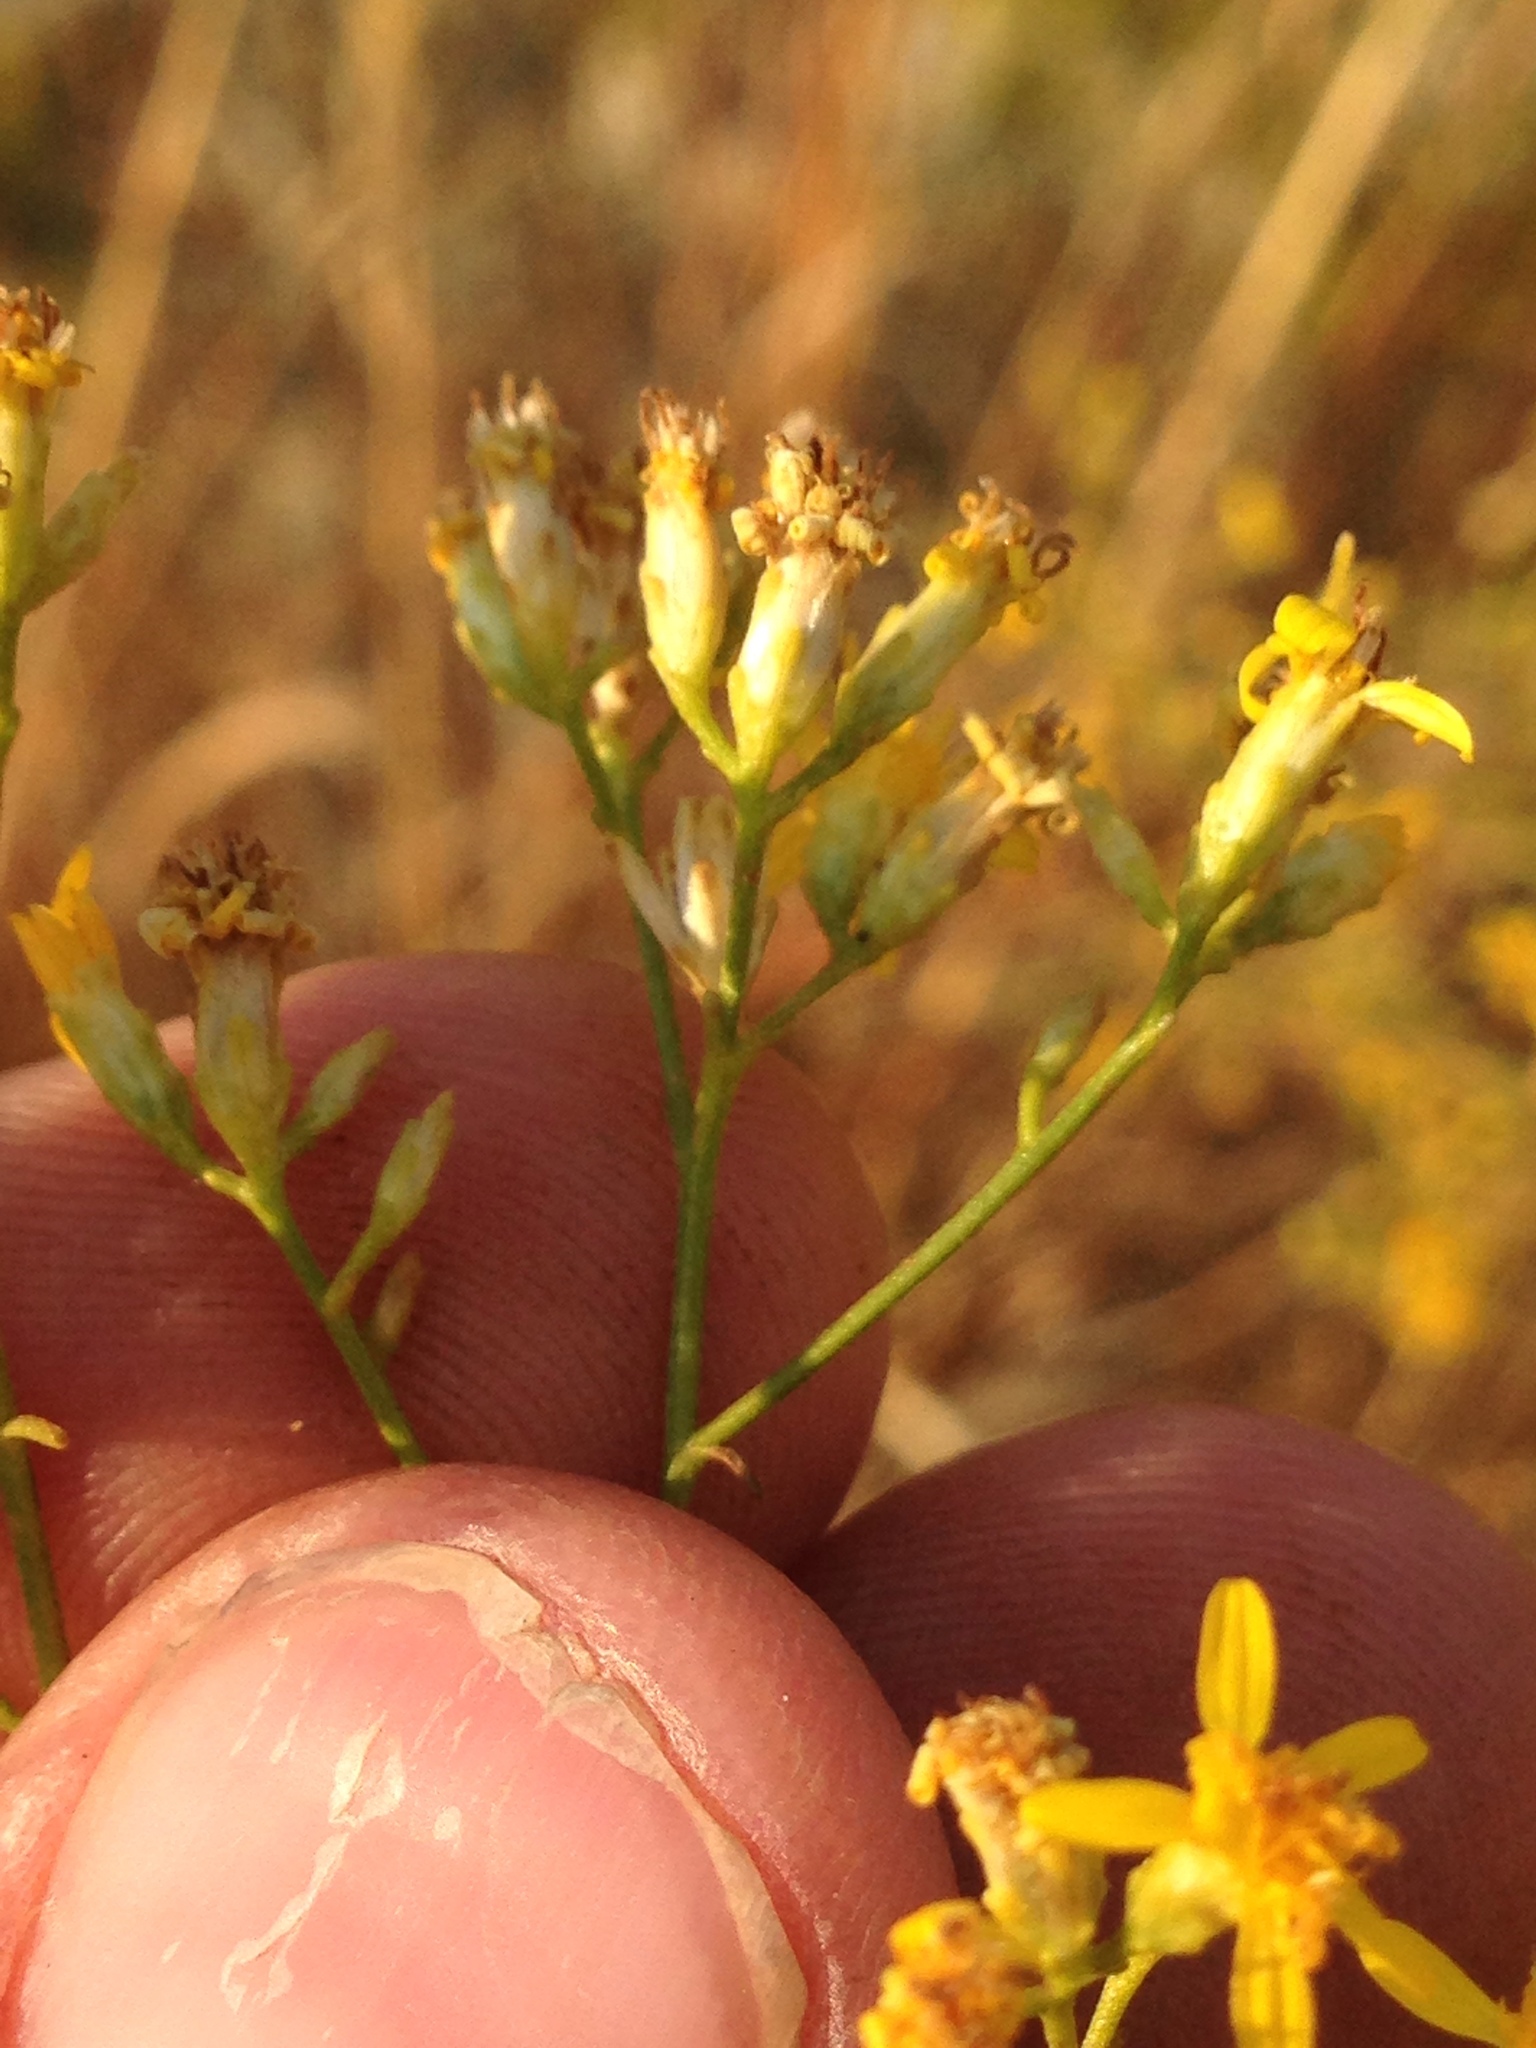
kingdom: Plantae
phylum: Tracheophyta
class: Magnoliopsida
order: Asterales
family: Asteraceae
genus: Gutierrezia
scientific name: Gutierrezia californica
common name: California matchweed
